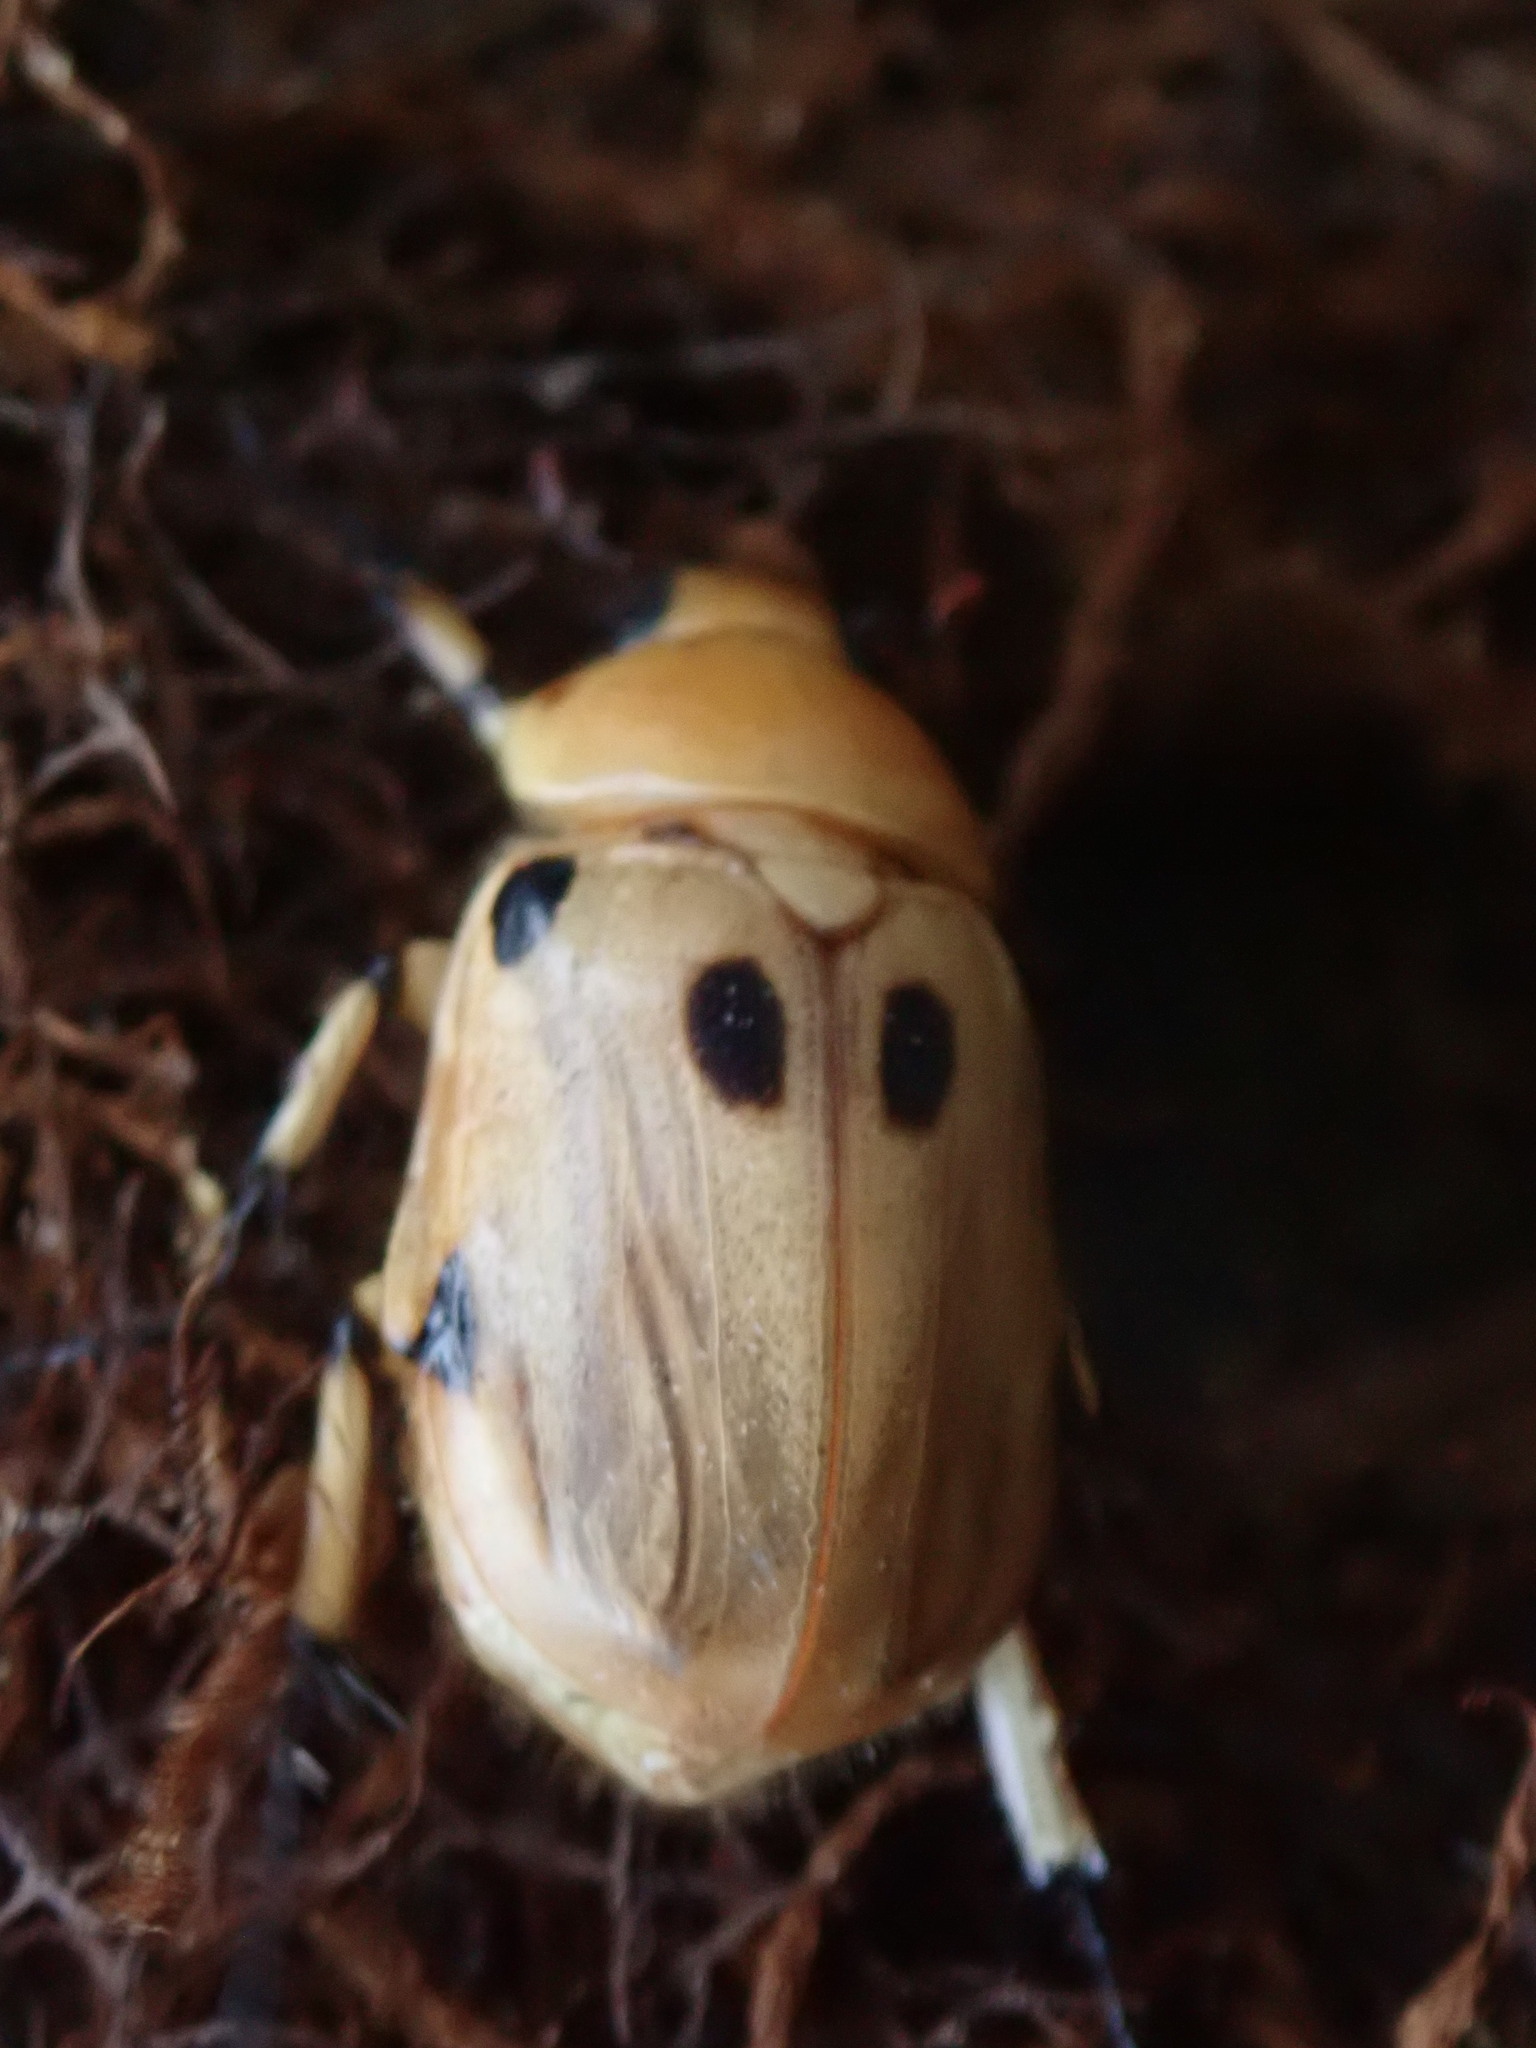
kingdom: Animalia
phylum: Arthropoda
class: Insecta
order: Coleoptera
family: Scarabaeidae
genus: Ancognatha
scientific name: Ancognatha vulgaris
